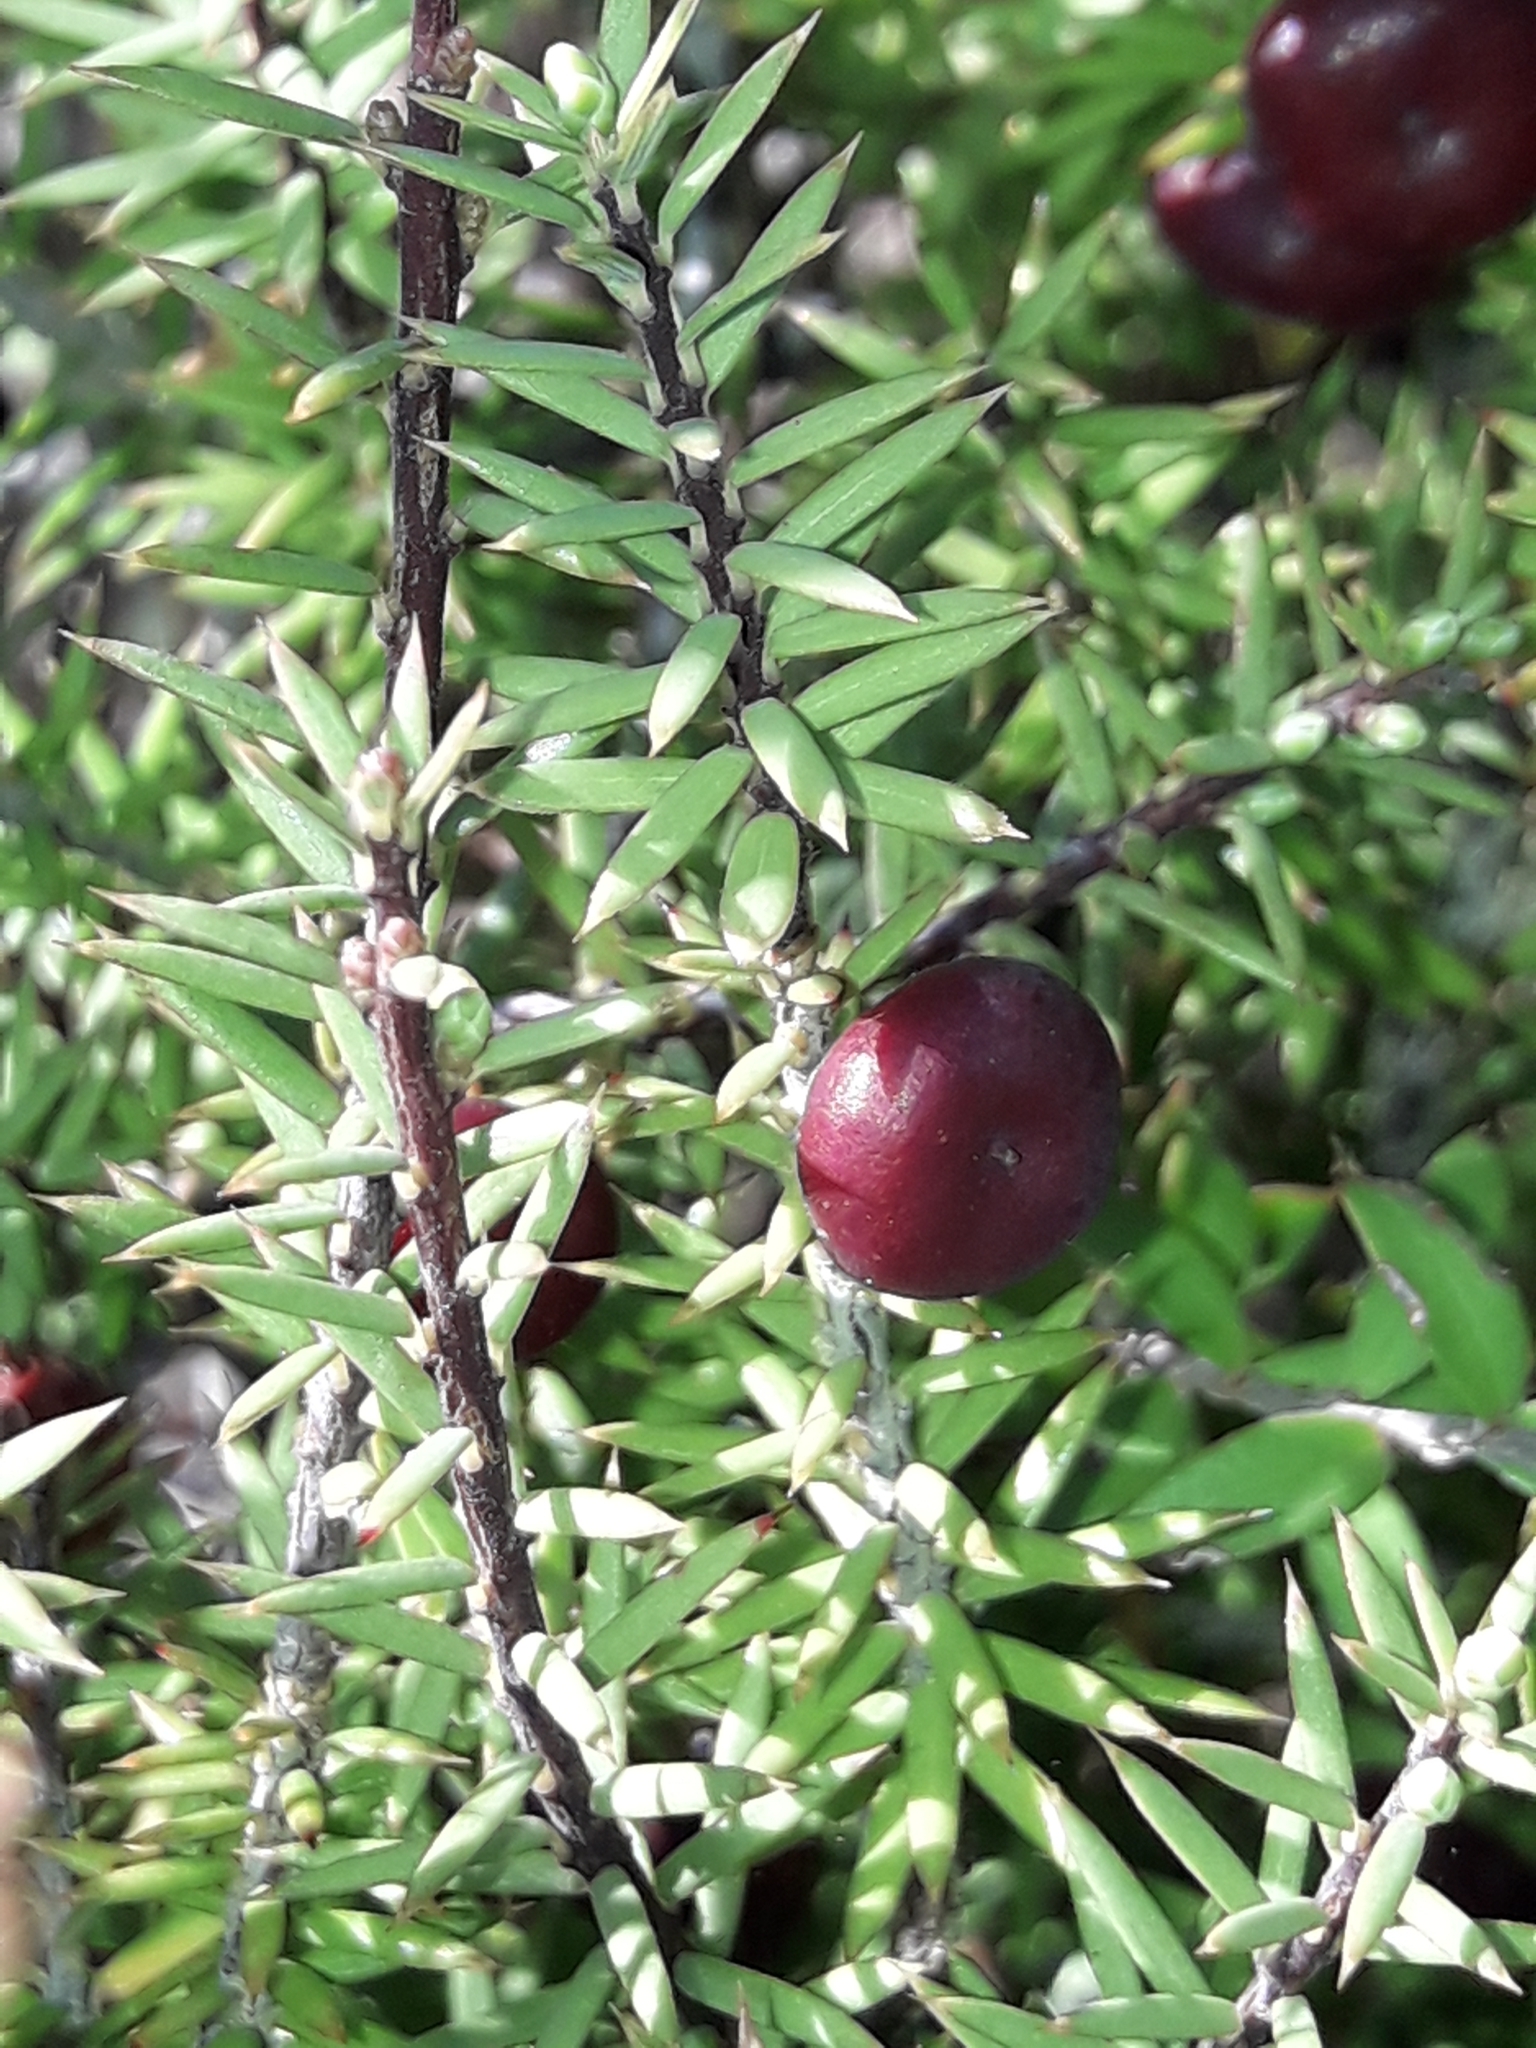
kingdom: Plantae
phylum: Tracheophyta
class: Magnoliopsida
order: Ericales
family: Ericaceae
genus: Leptecophylla
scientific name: Leptecophylla juniperina
